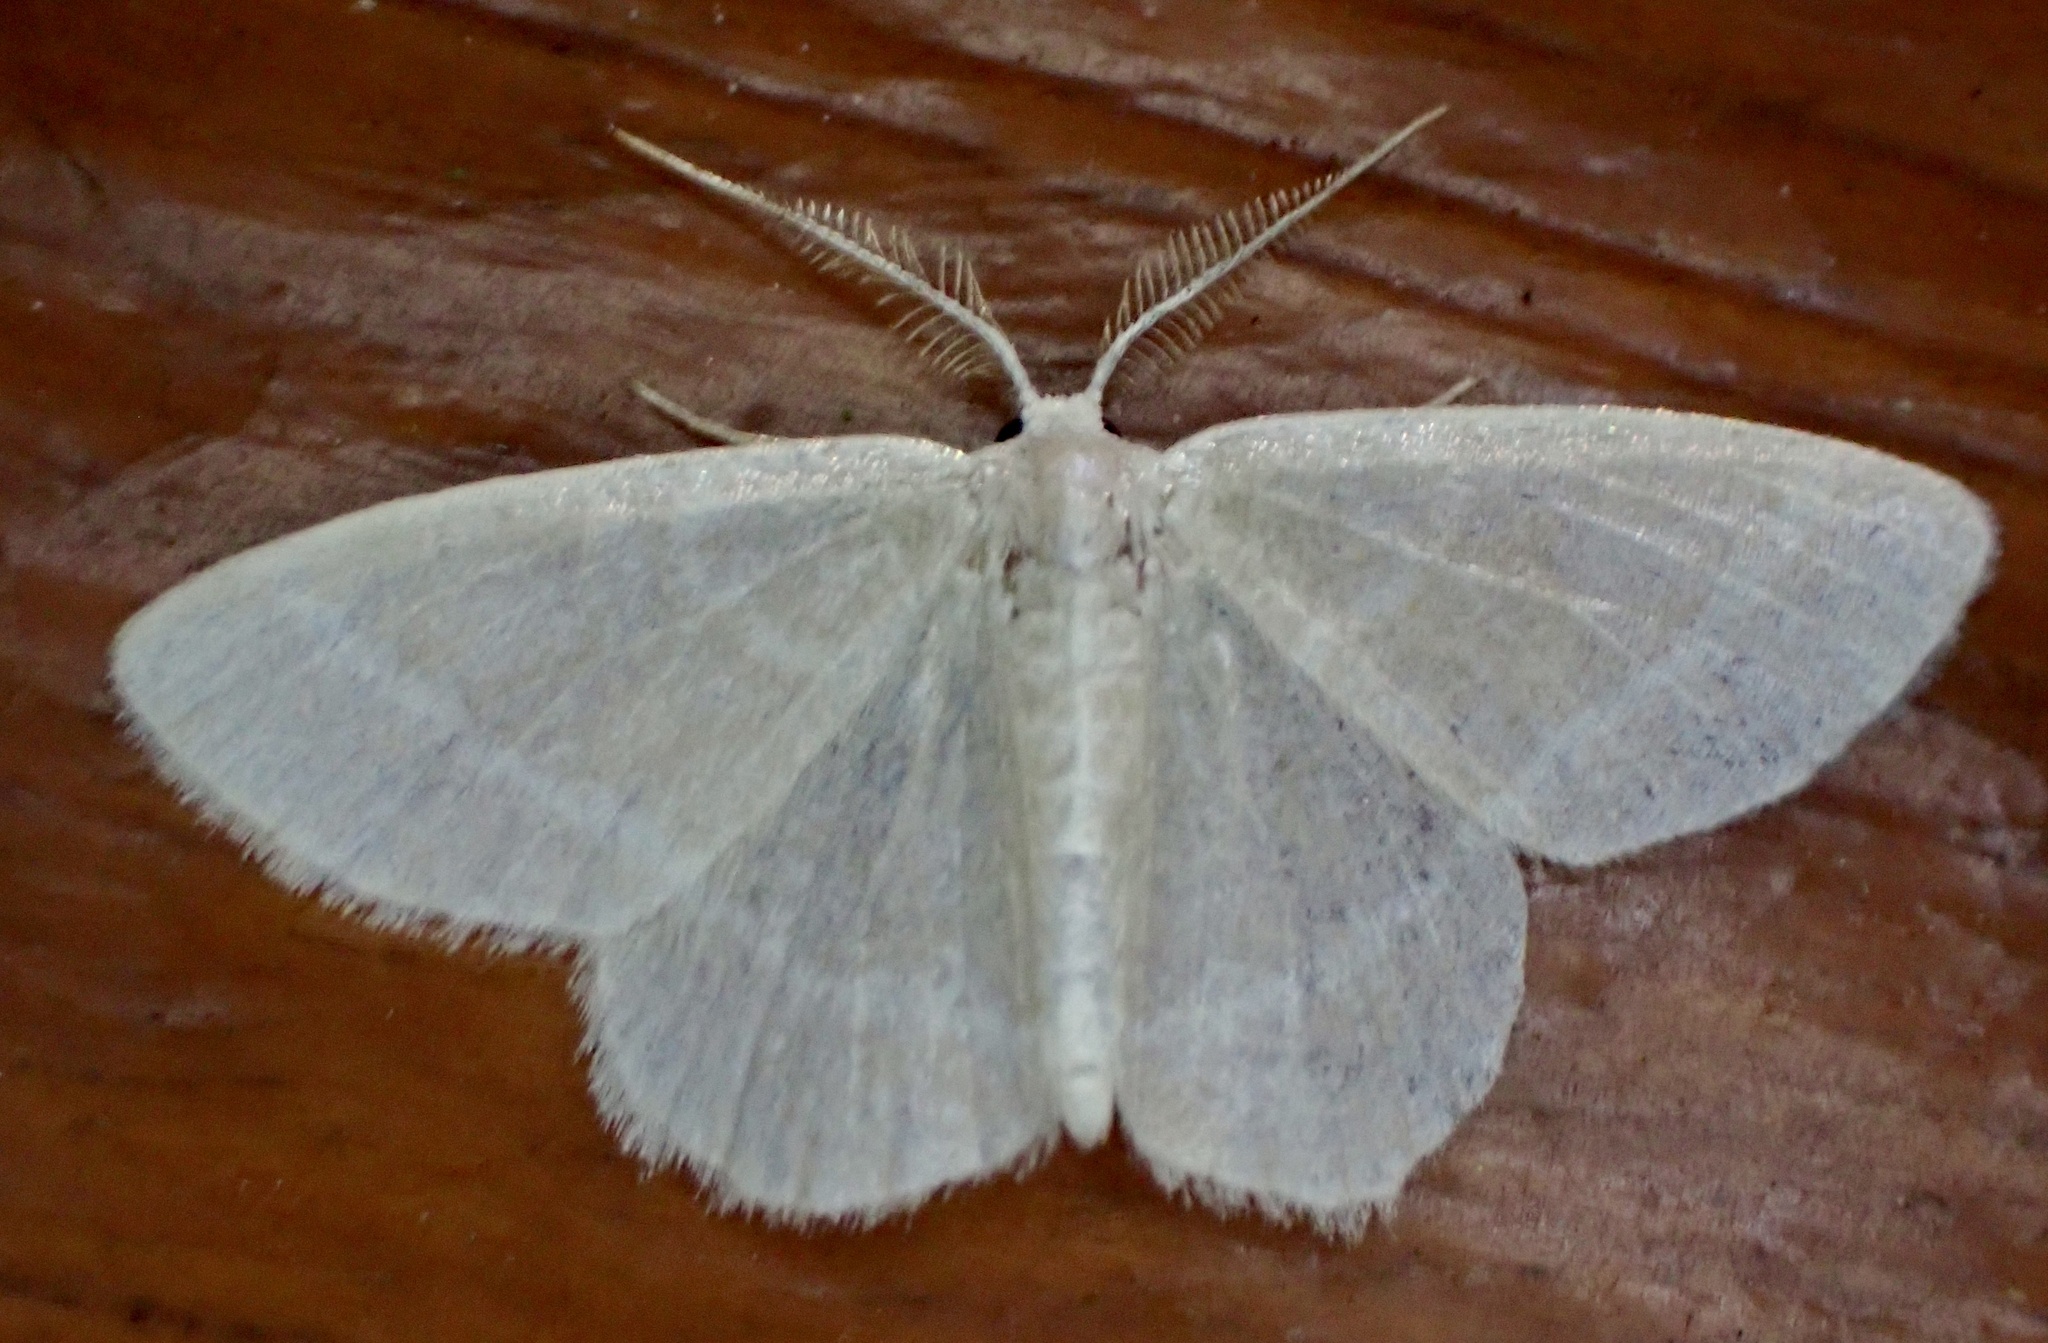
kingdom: Animalia
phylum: Arthropoda
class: Insecta
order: Lepidoptera
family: Geometridae
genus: Chlorochlamys
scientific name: Chlorochlamys chloroleucaria
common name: Blackberry looper
